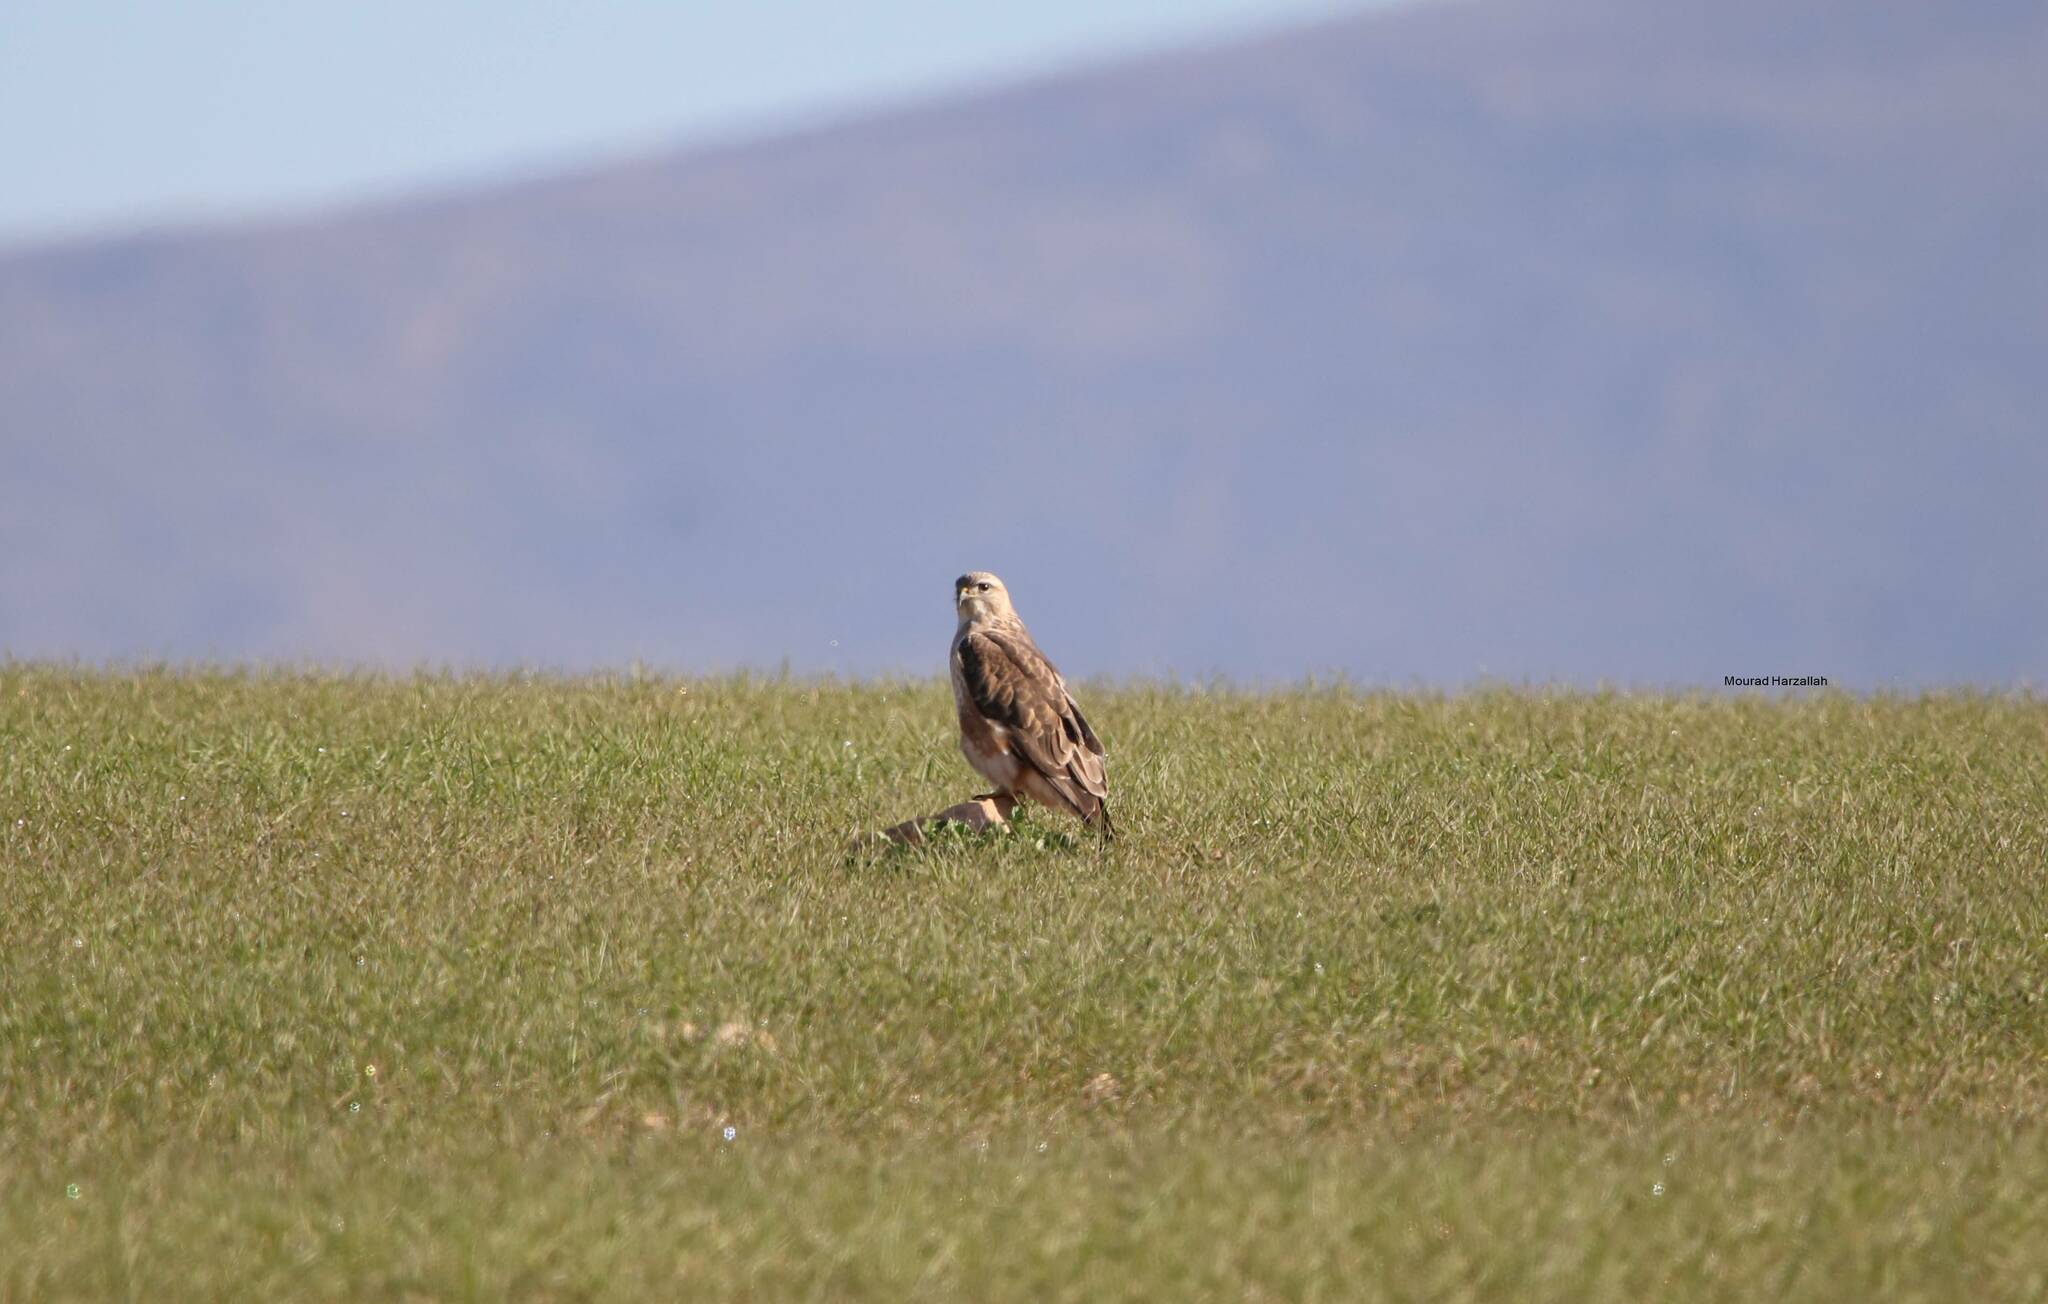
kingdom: Animalia
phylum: Chordata
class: Aves
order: Accipitriformes
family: Accipitridae
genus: Buteo
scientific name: Buteo rufinus
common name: Long-legged buzzard
